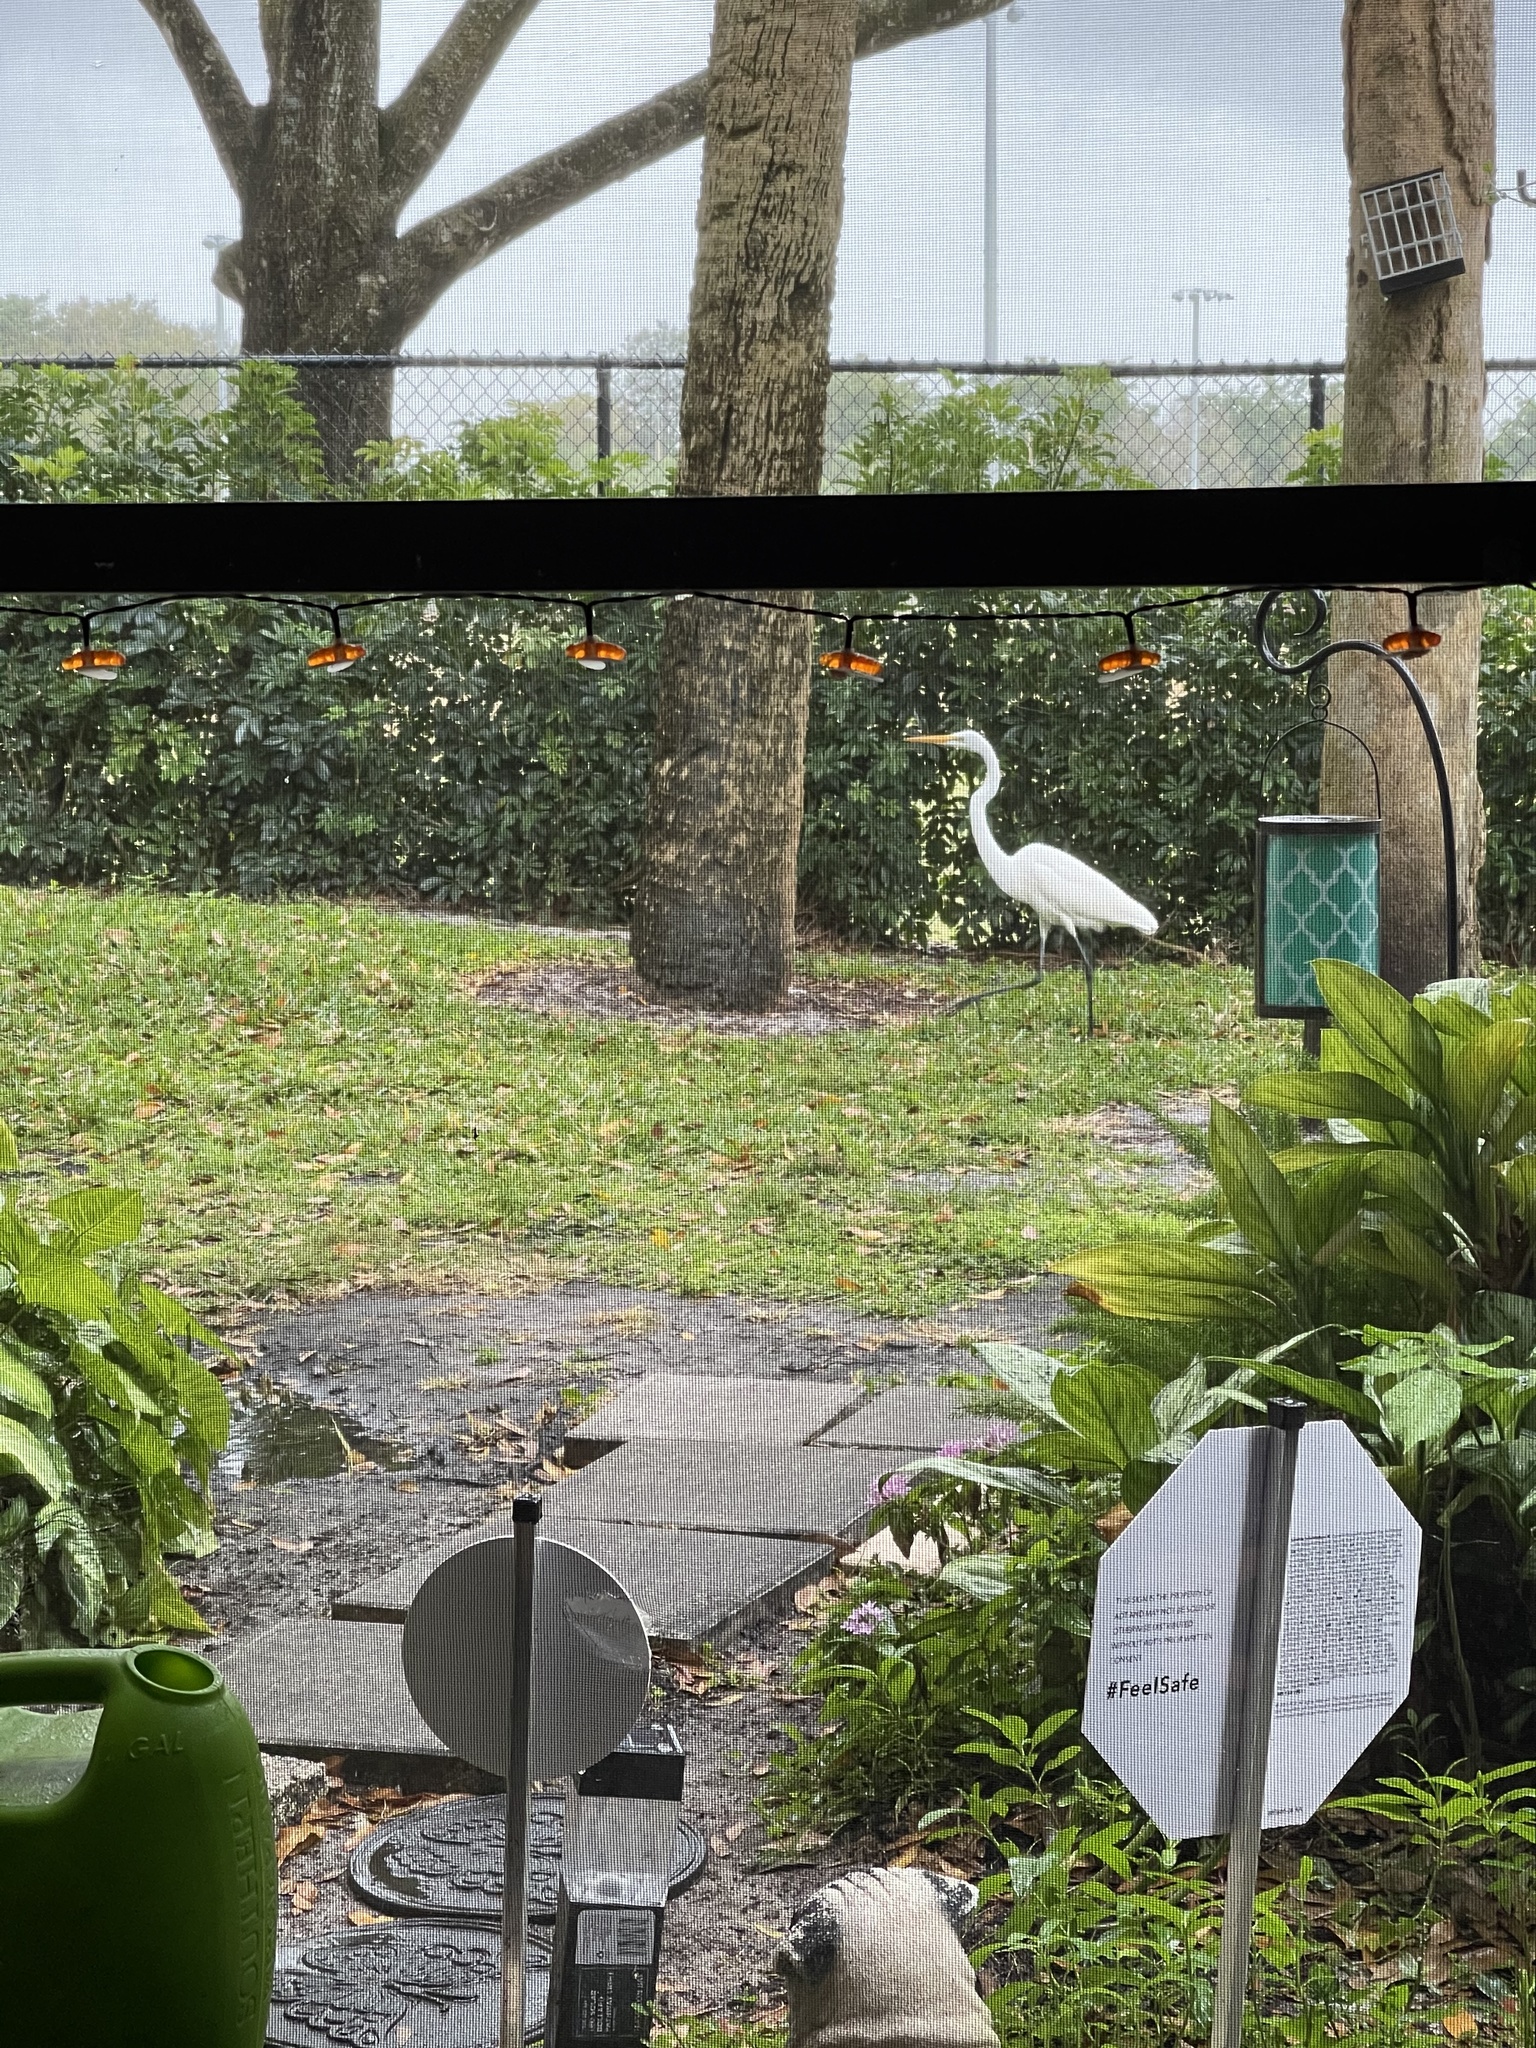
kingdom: Animalia
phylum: Chordata
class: Aves
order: Pelecaniformes
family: Ardeidae
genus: Ardea
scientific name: Ardea alba
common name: Great egret
